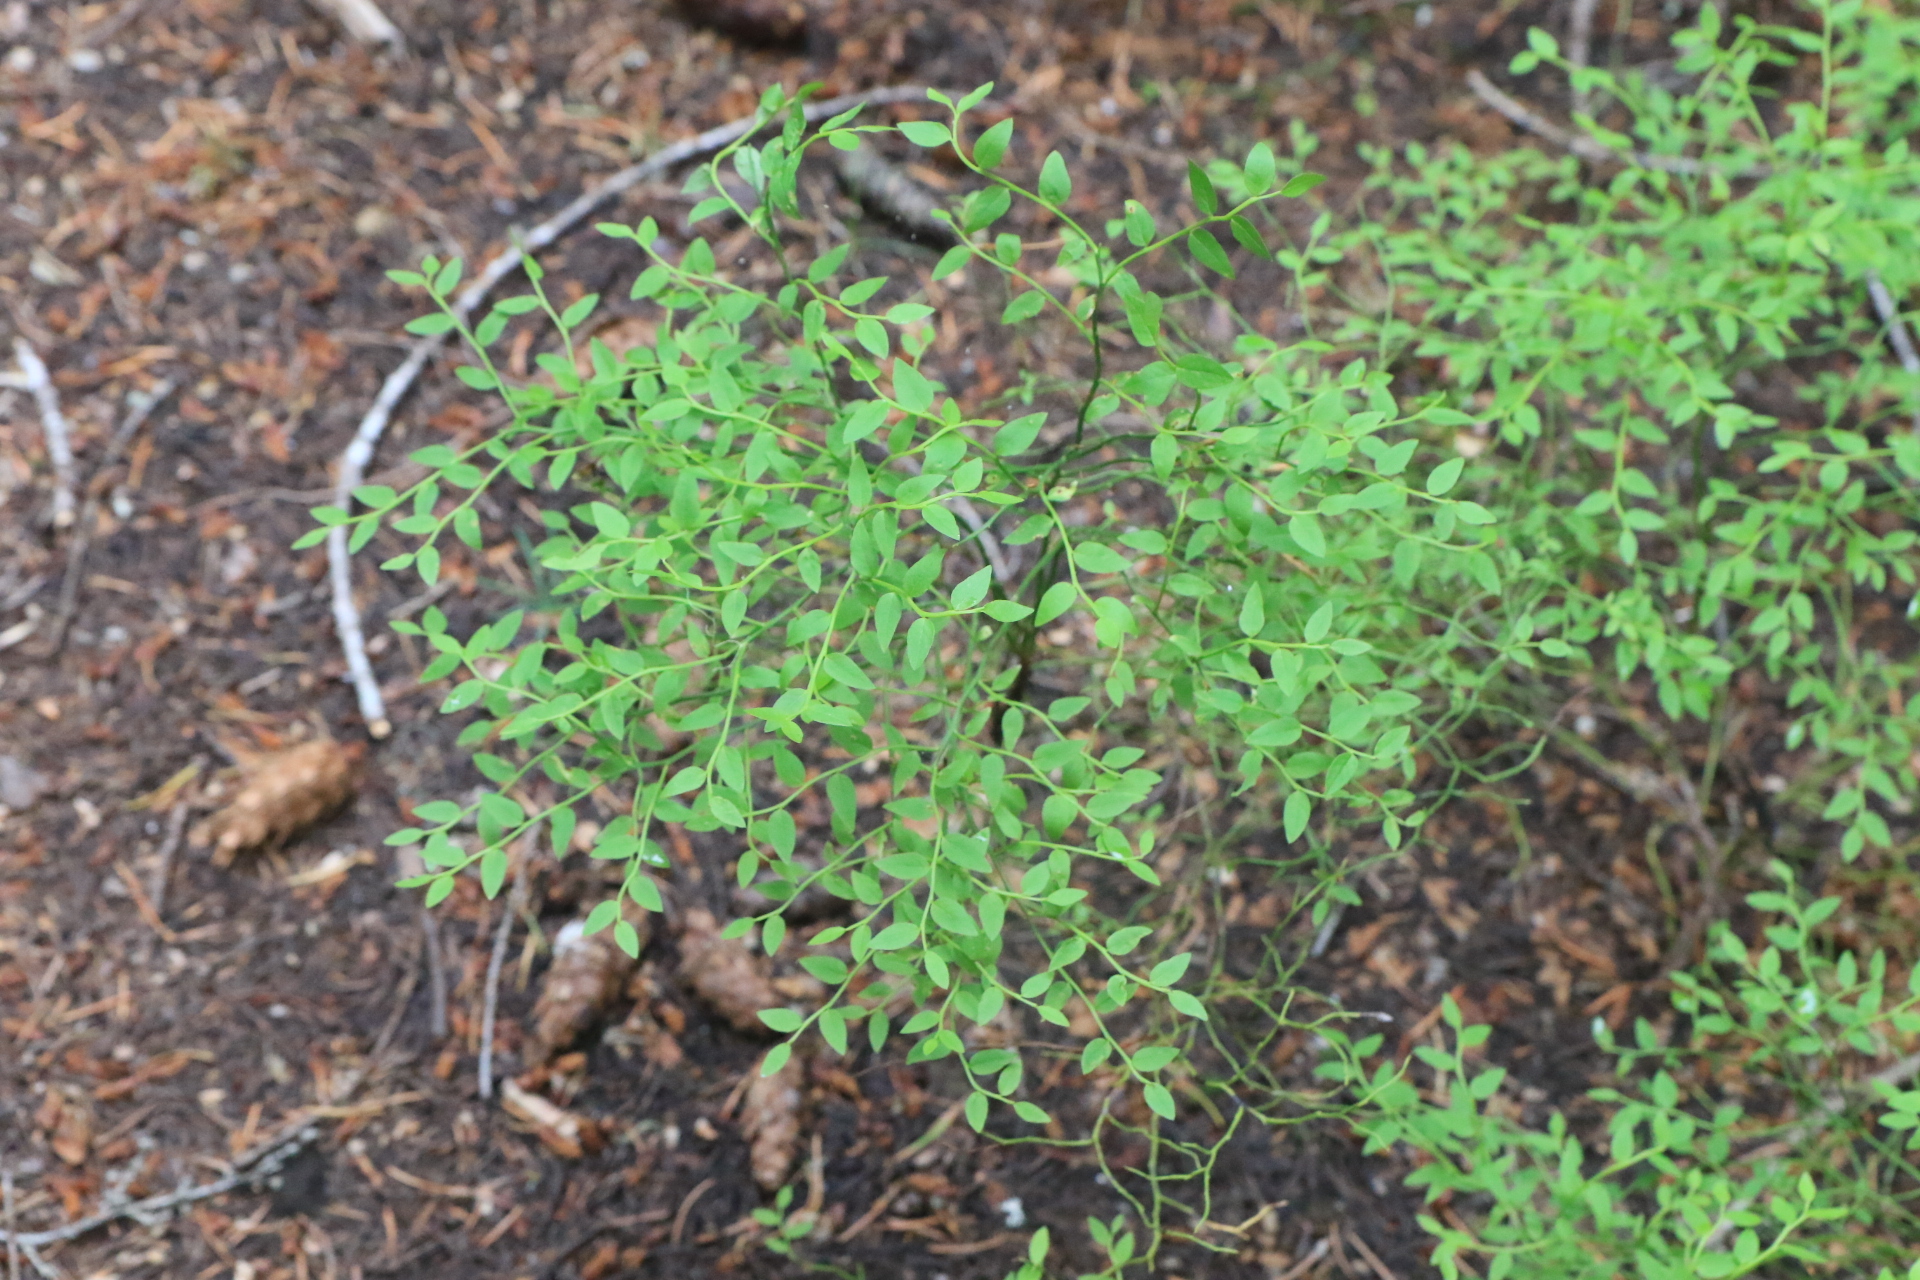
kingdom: Plantae
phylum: Tracheophyta
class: Magnoliopsida
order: Ericales
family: Ericaceae
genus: Vaccinium
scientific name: Vaccinium scoparium
